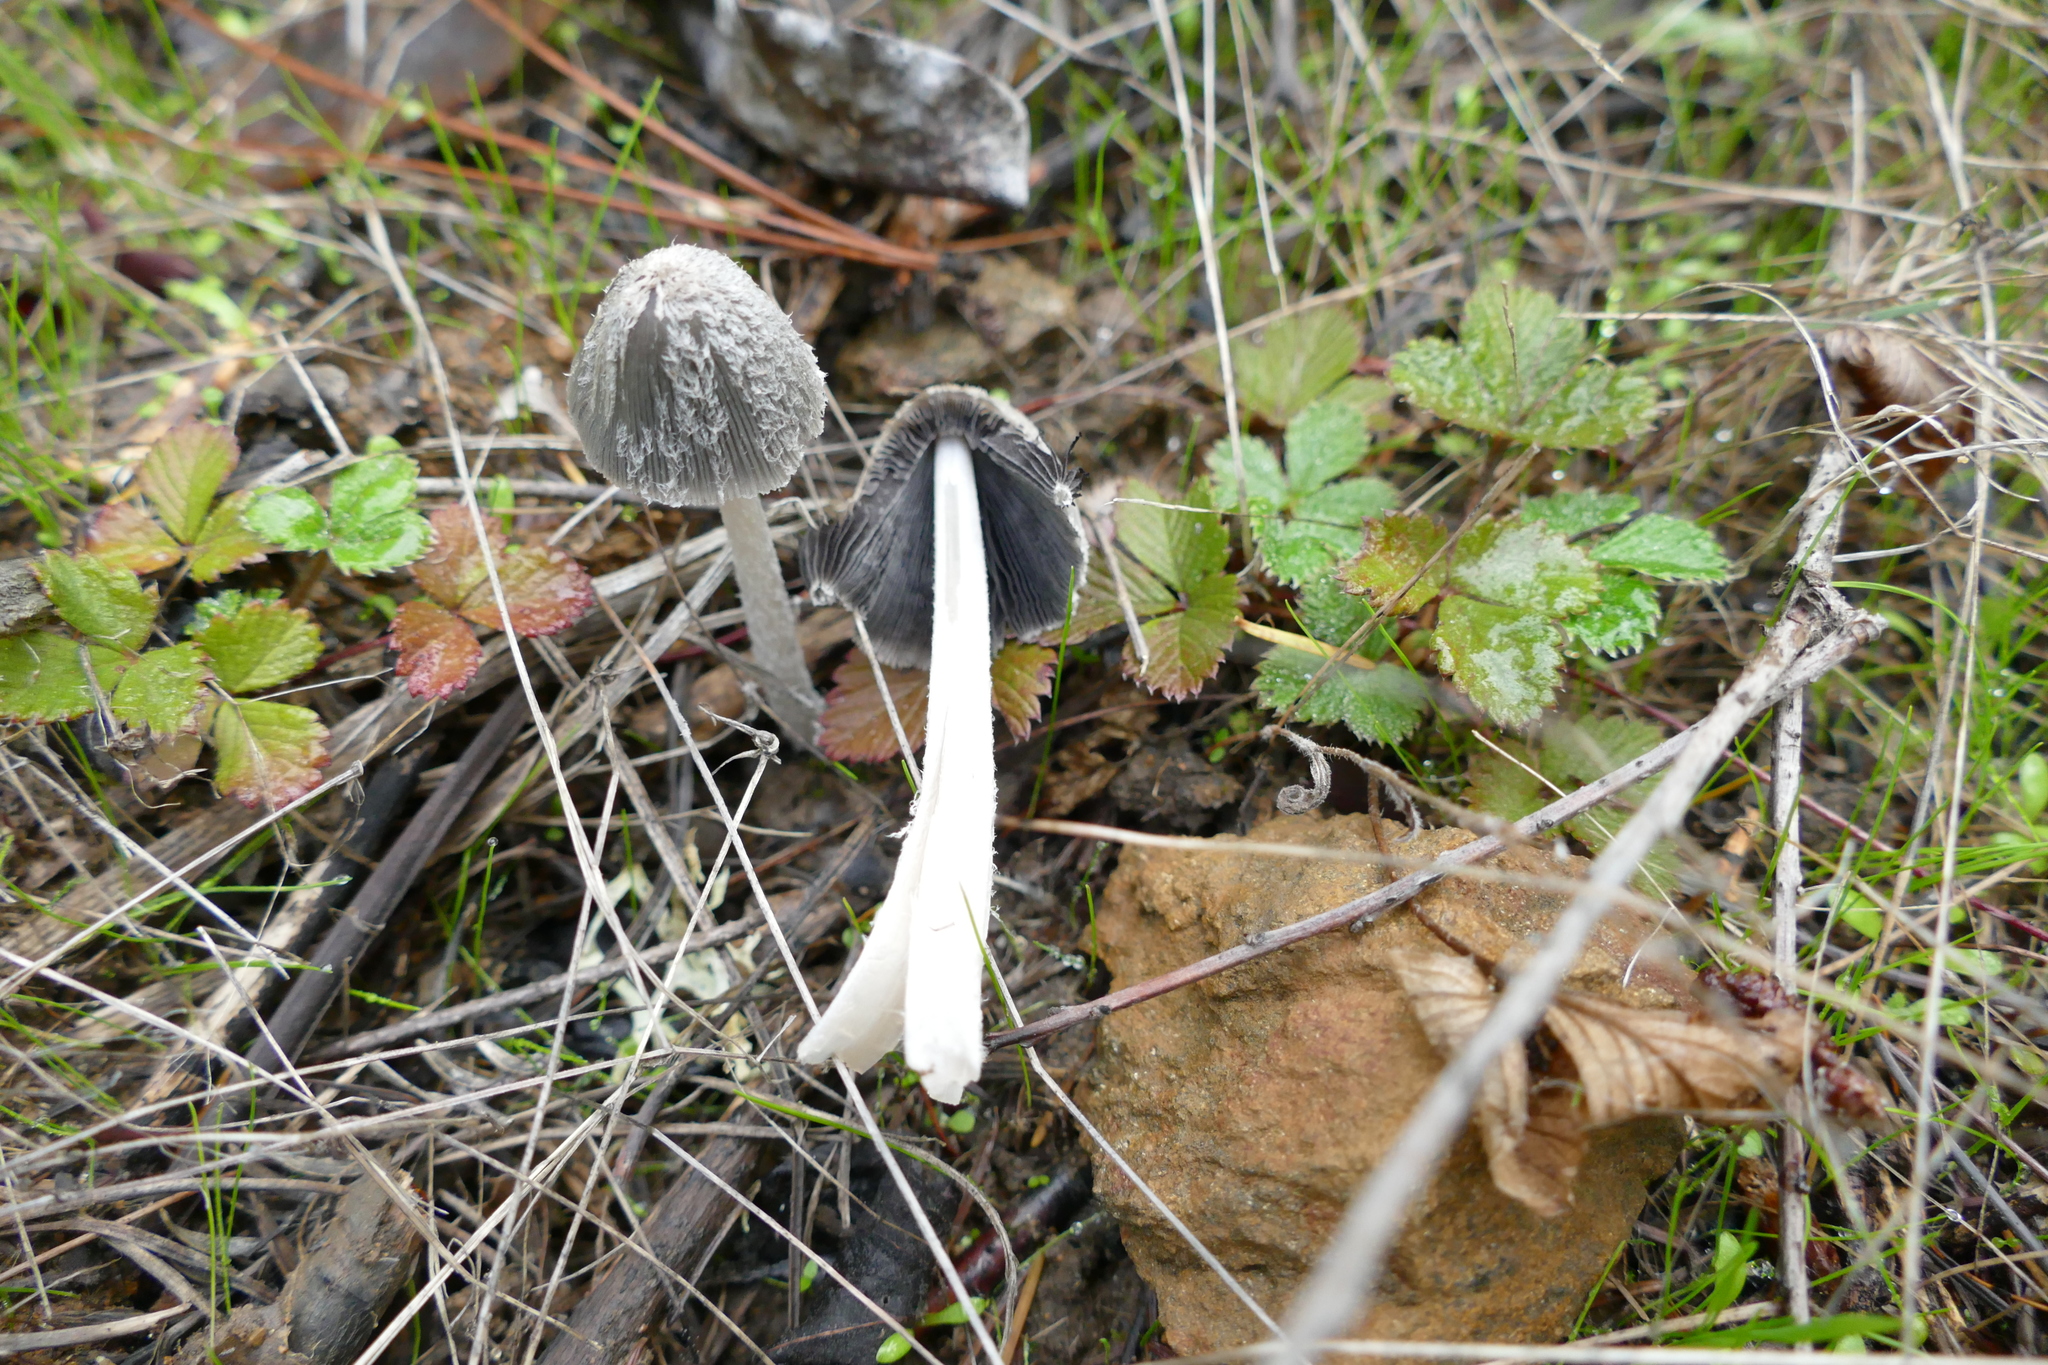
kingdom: Fungi
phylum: Basidiomycota
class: Agaricomycetes
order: Agaricales
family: Psathyrellaceae
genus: Coprinopsis
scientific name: Coprinopsis lagopus
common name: Hare'sfoot inkcap
